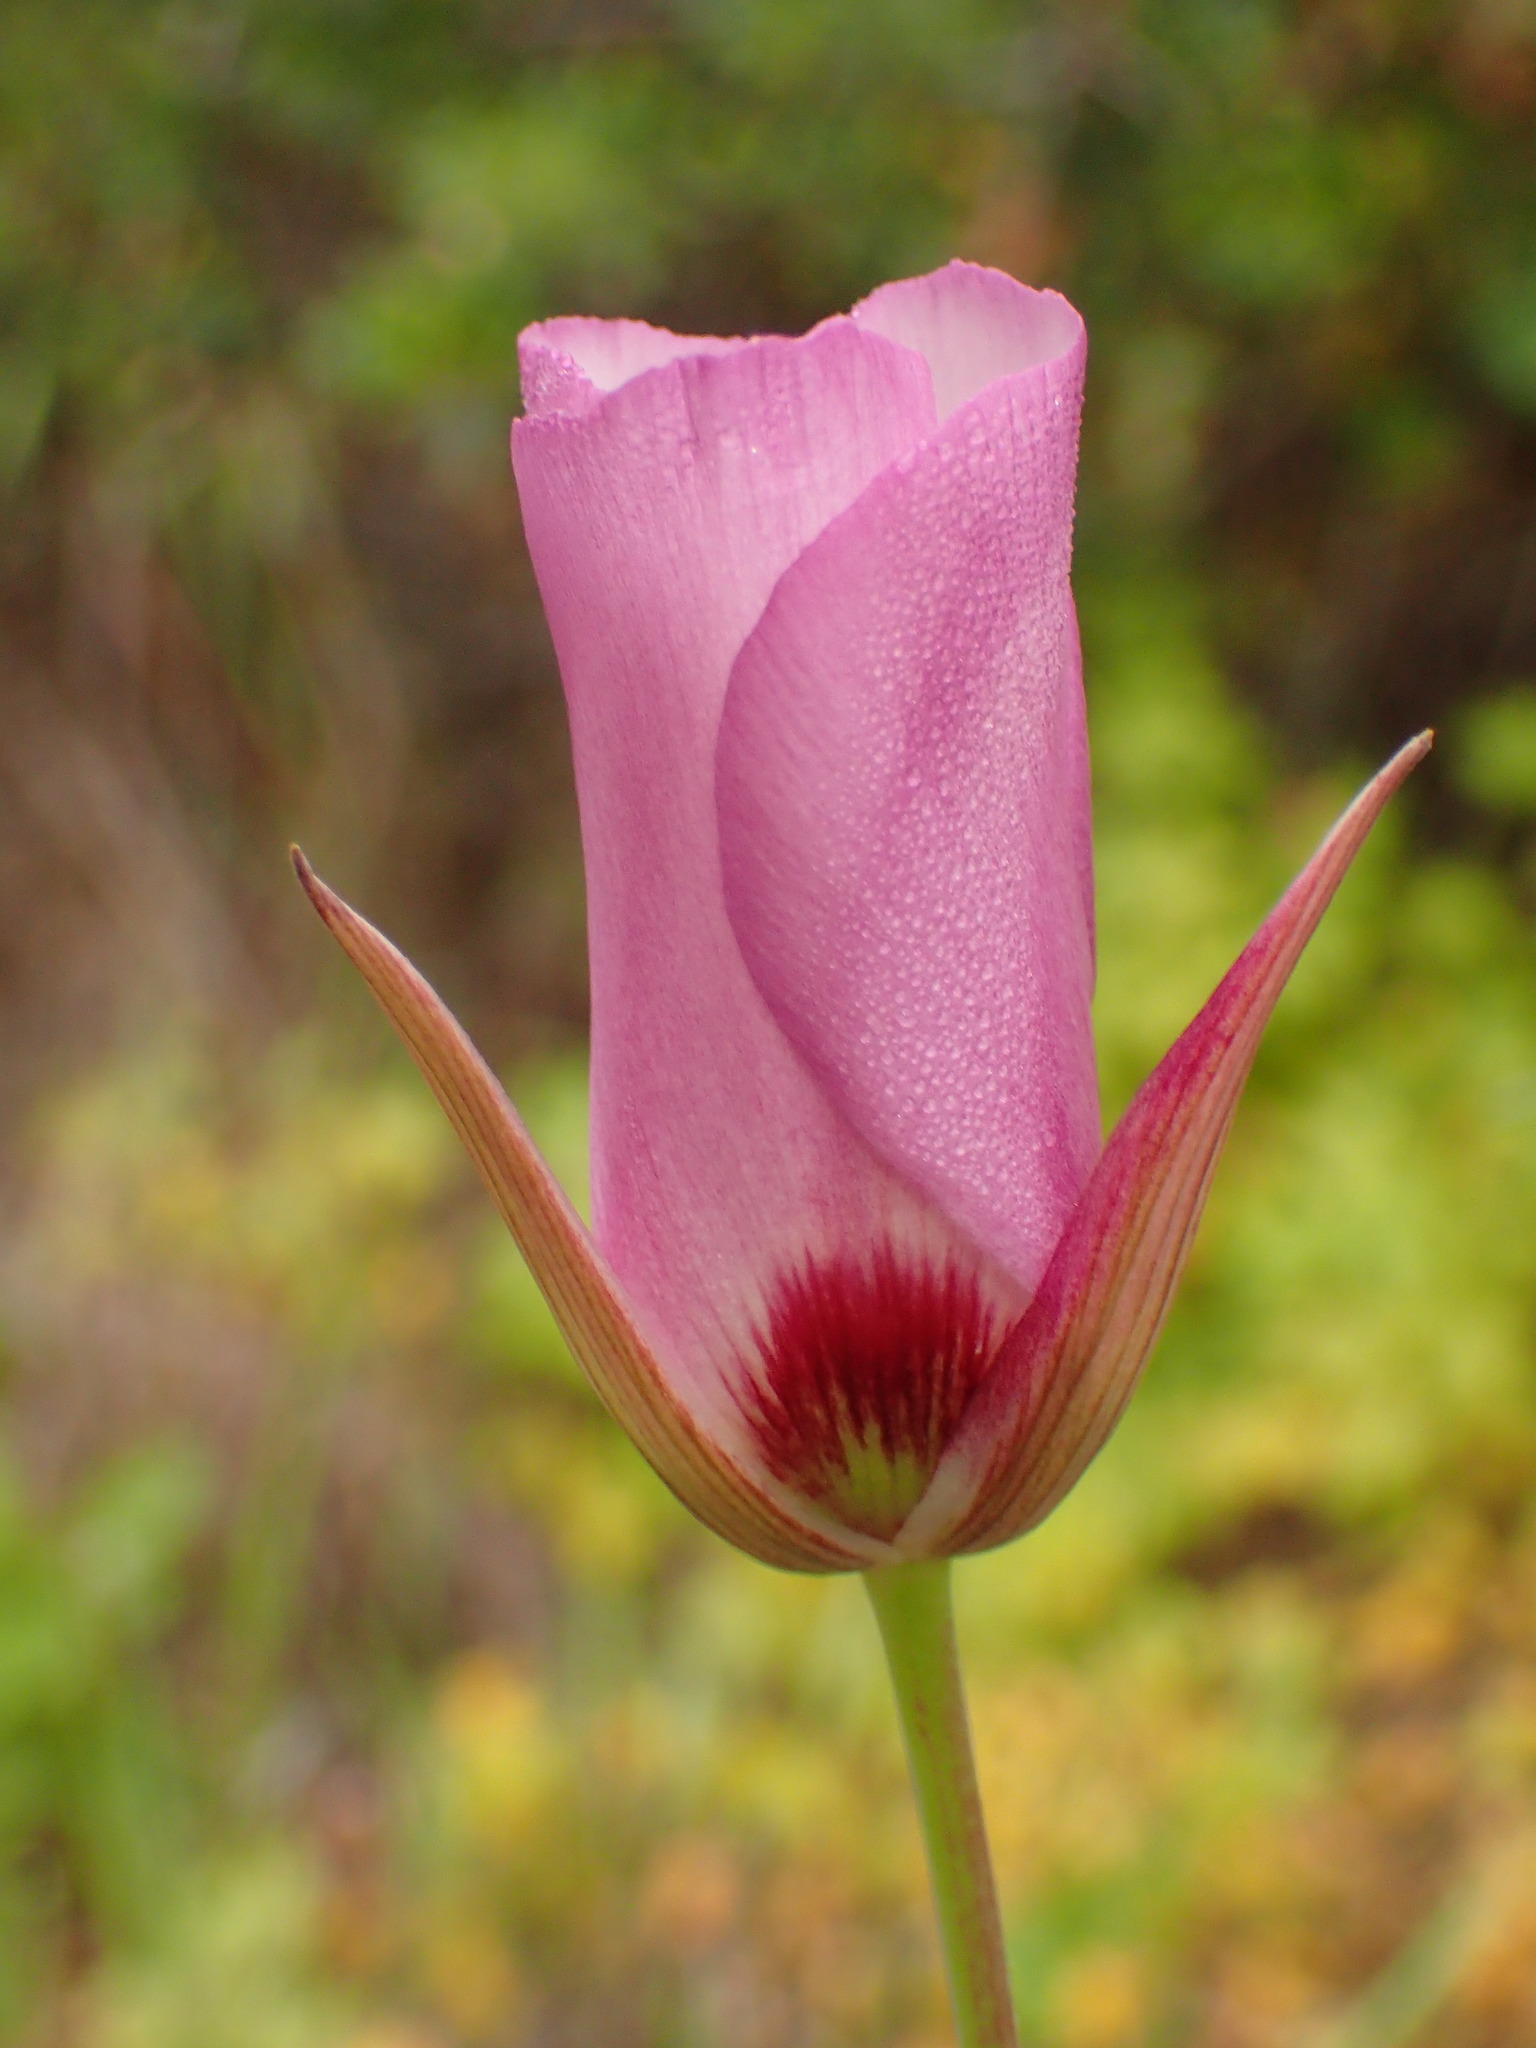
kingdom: Plantae
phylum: Tracheophyta
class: Liliopsida
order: Liliales
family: Liliaceae
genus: Calochortus
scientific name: Calochortus catalinae
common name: Catalina mariposa-lily
